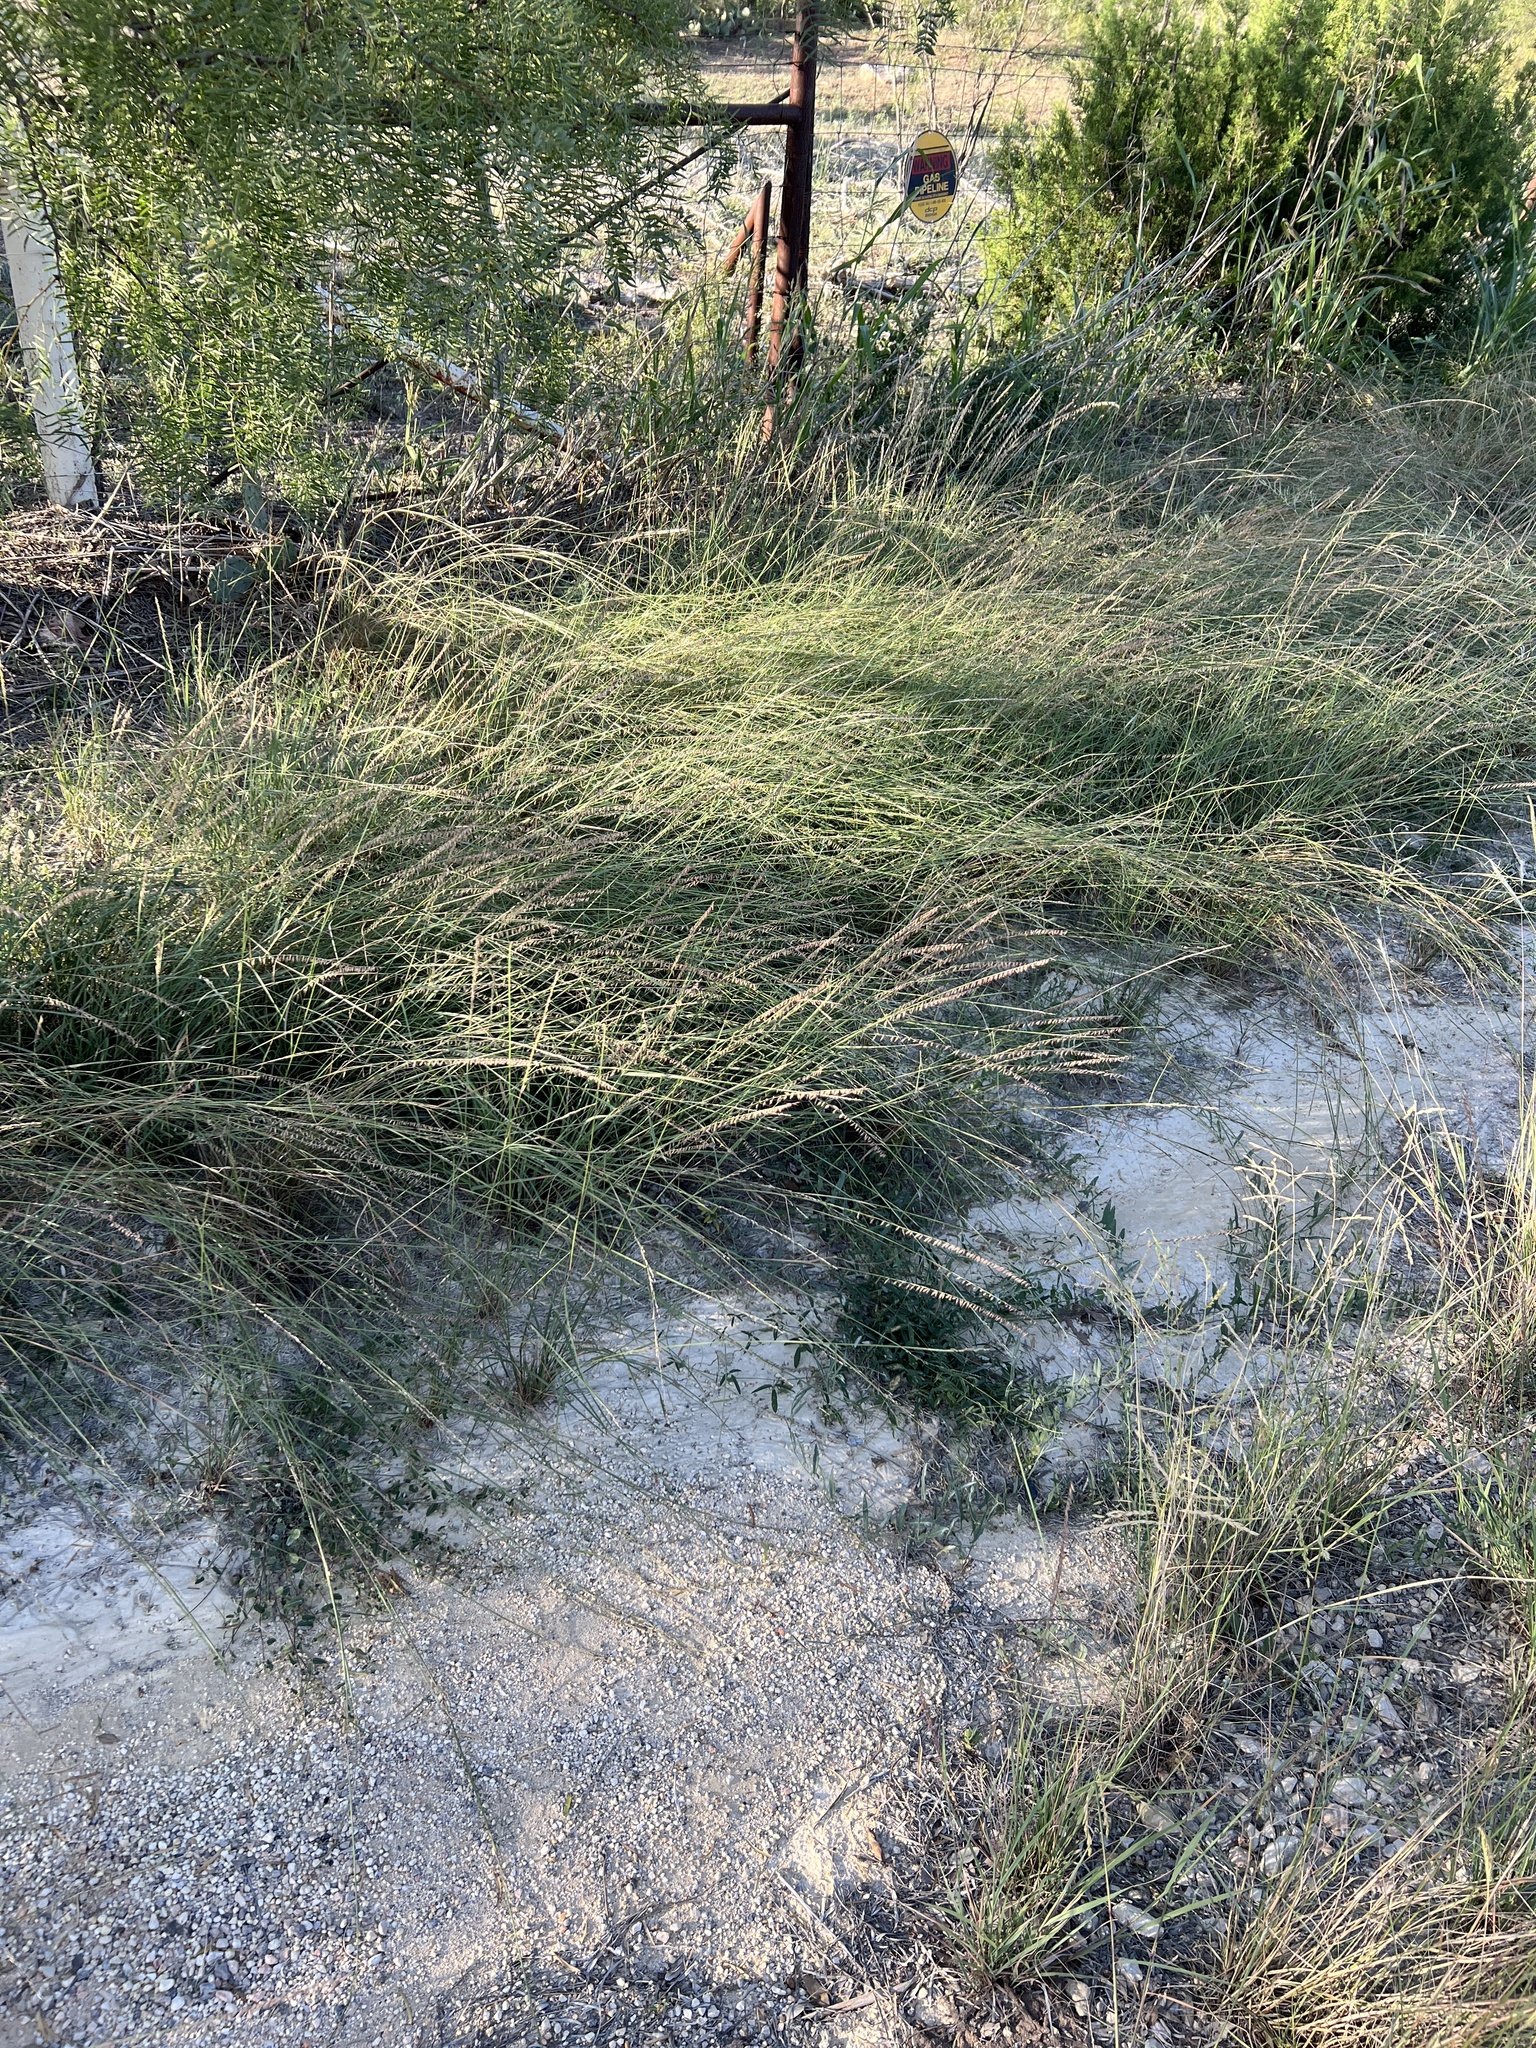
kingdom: Plantae
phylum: Tracheophyta
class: Liliopsida
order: Poales
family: Poaceae
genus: Bouteloua
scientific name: Bouteloua curtipendula
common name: Side-oats grama
